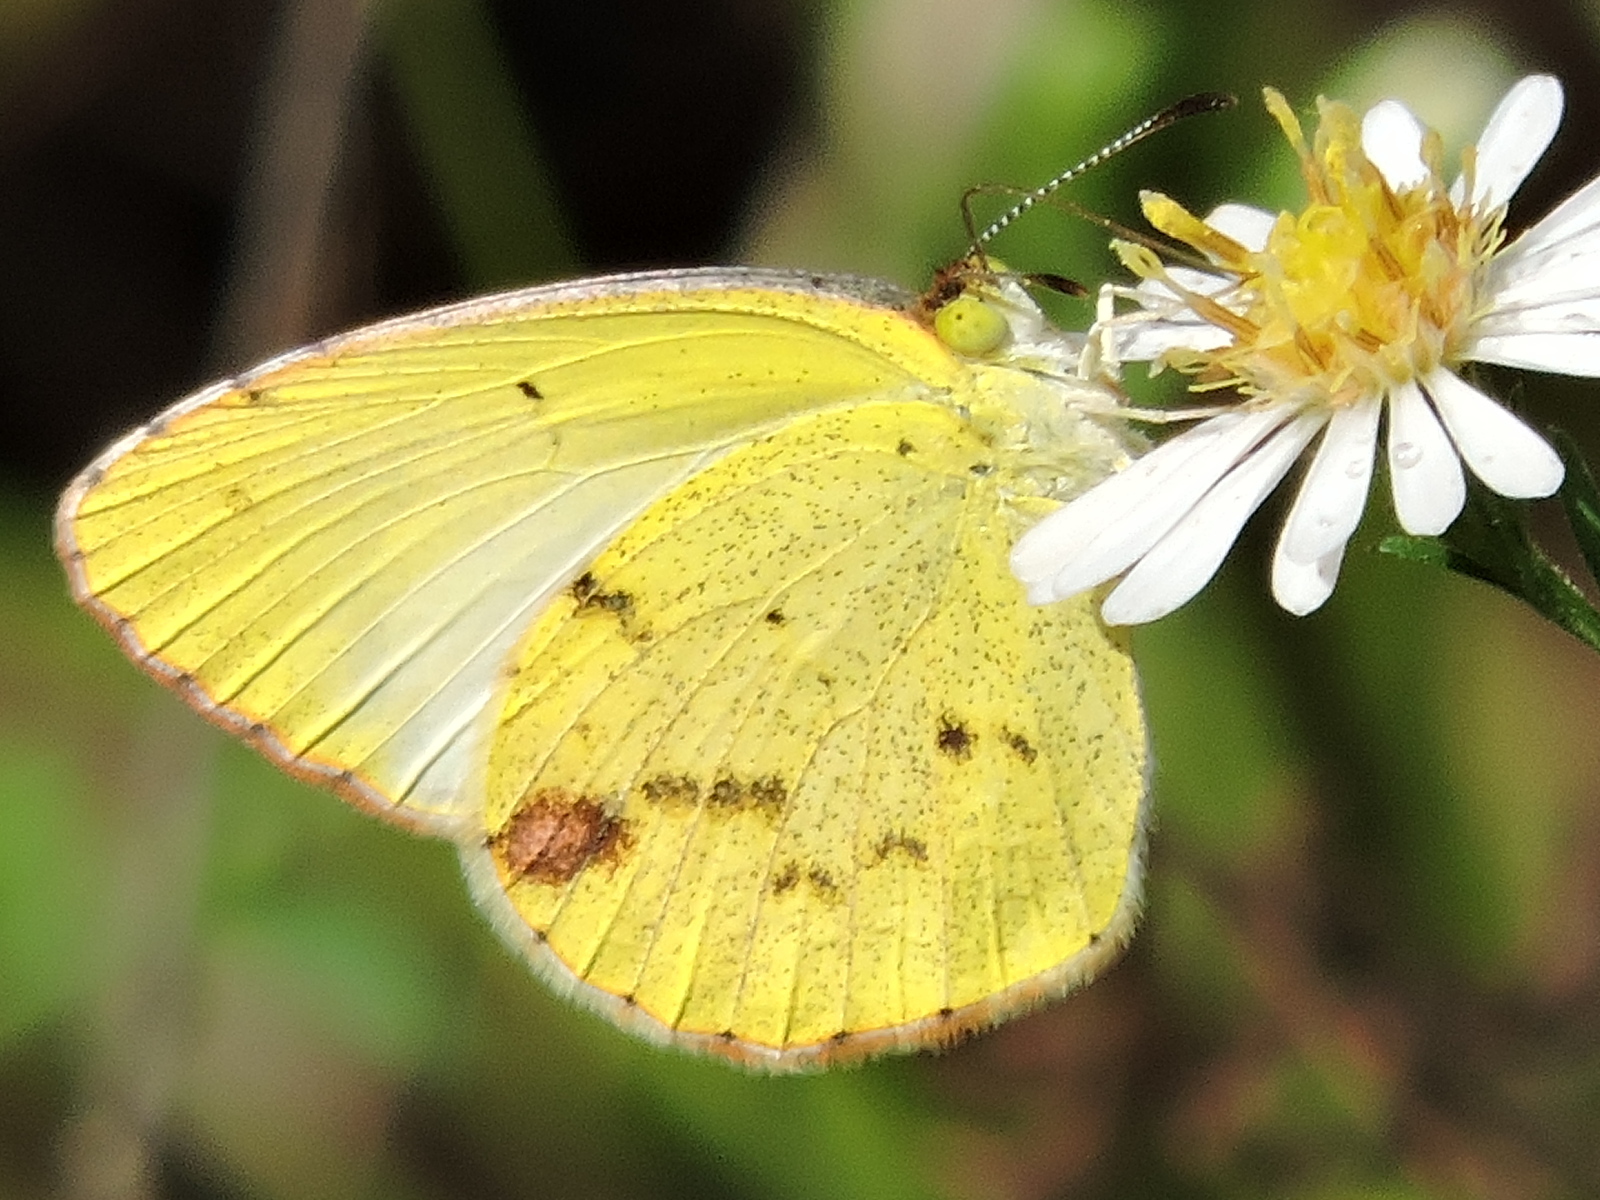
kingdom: Animalia
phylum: Arthropoda
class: Insecta
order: Lepidoptera
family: Pieridae
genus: Pyrisitia
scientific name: Pyrisitia lisa
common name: Little yellow
